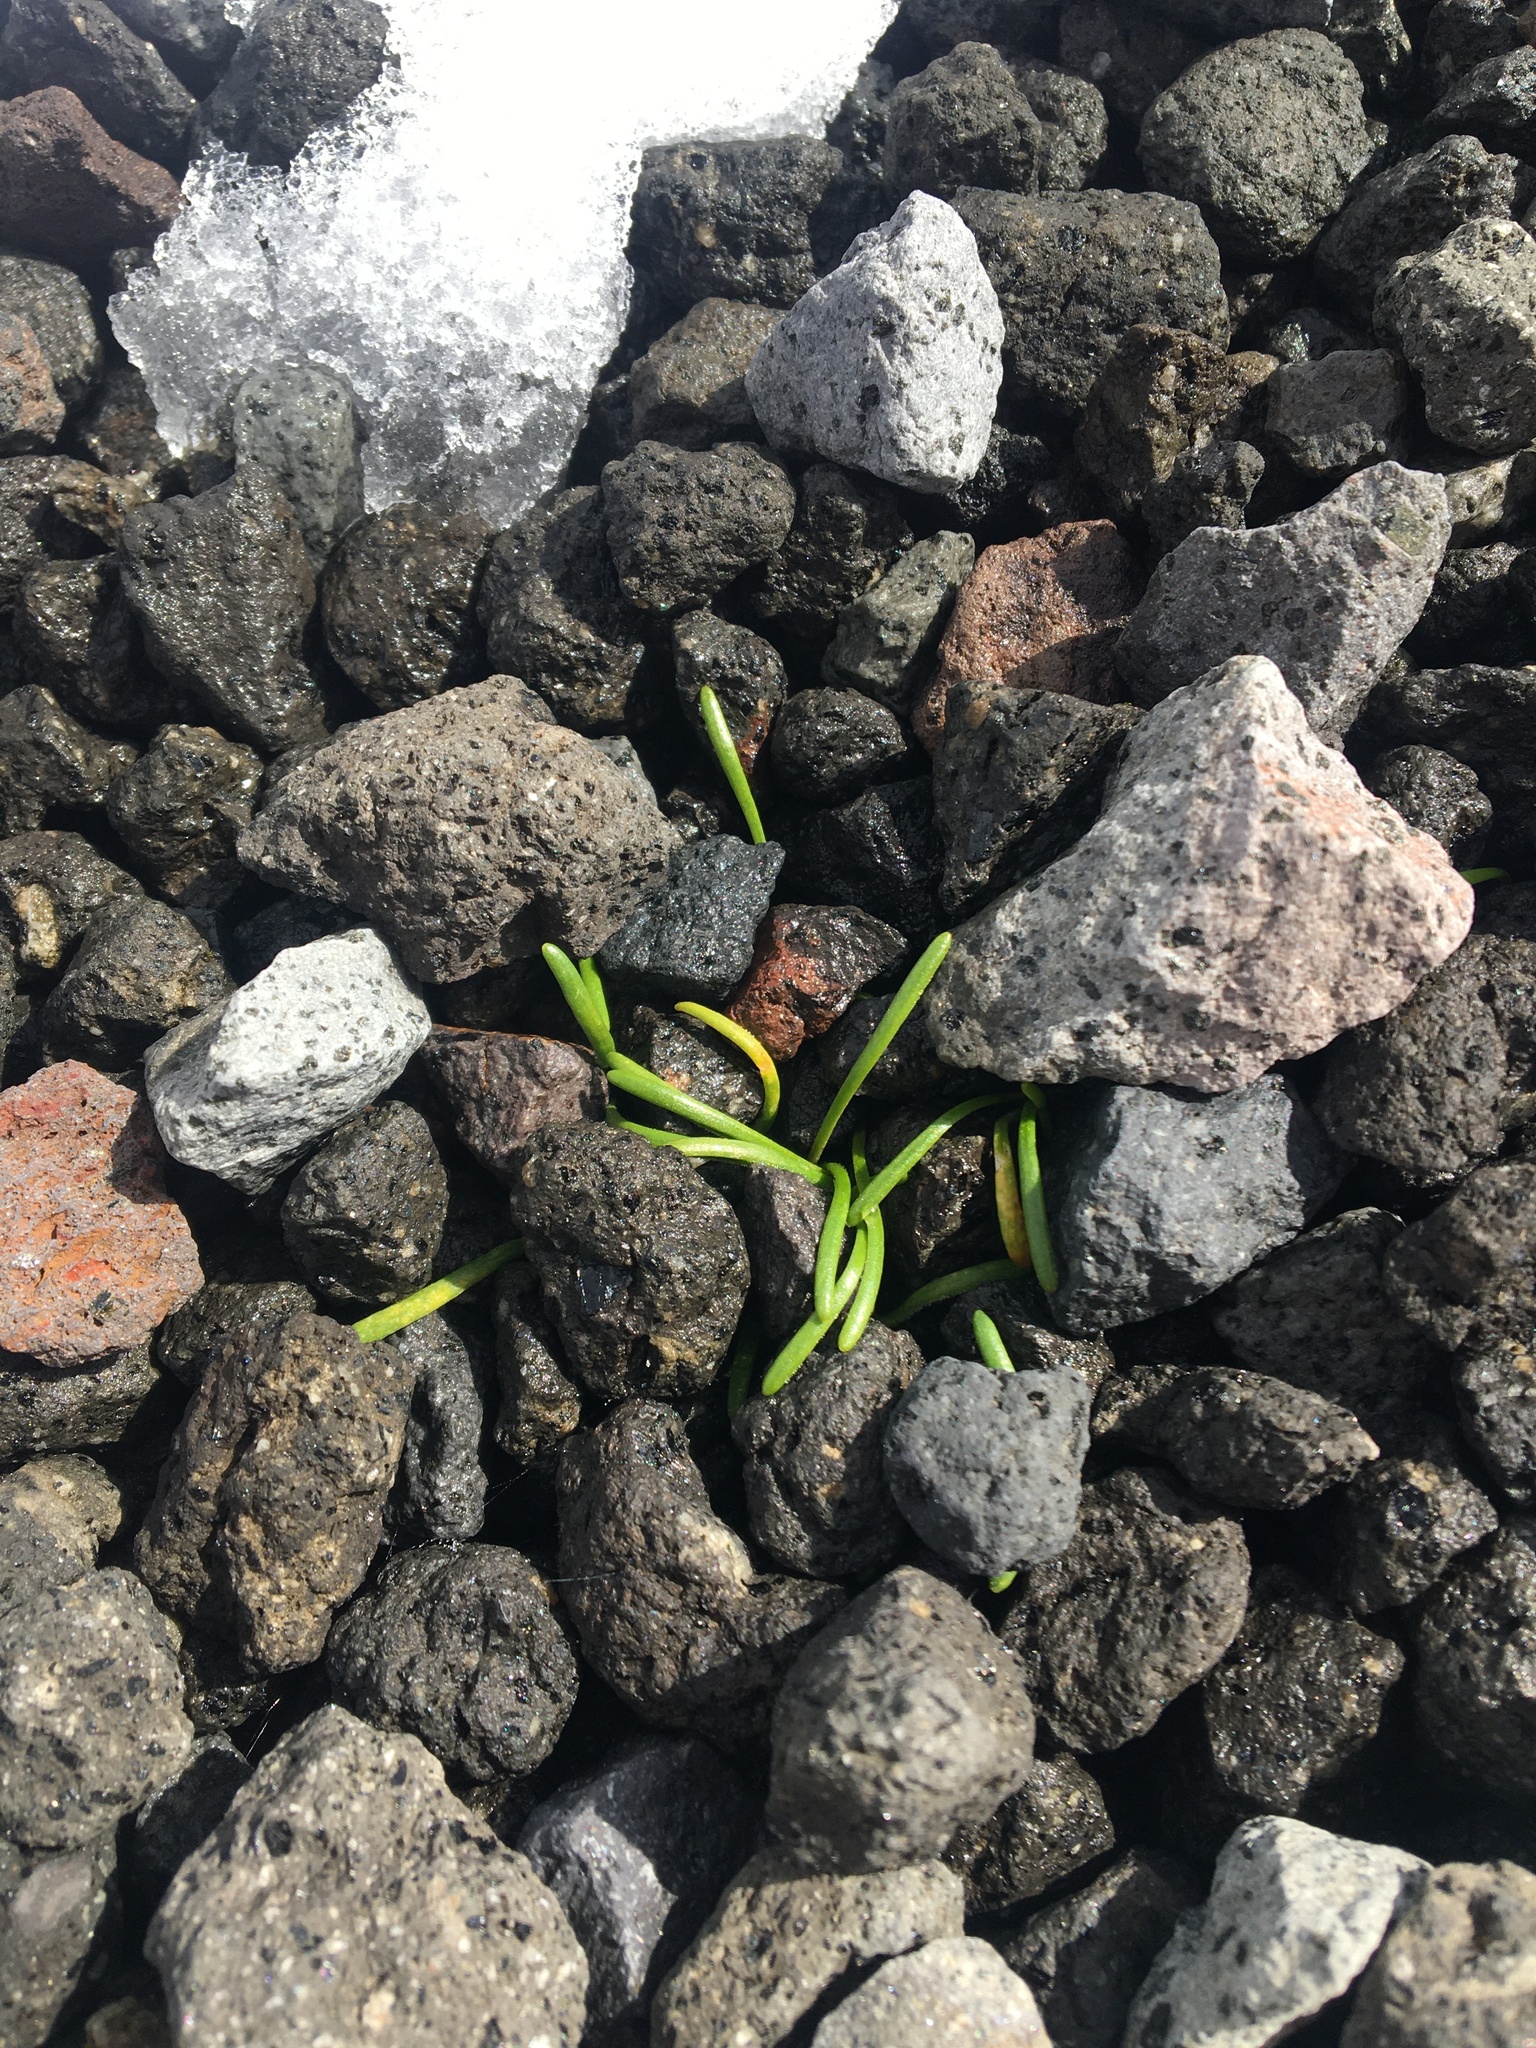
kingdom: Plantae
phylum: Tracheophyta
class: Magnoliopsida
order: Caryophyllales
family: Montiaceae
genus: Montia
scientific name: Montia calycina
